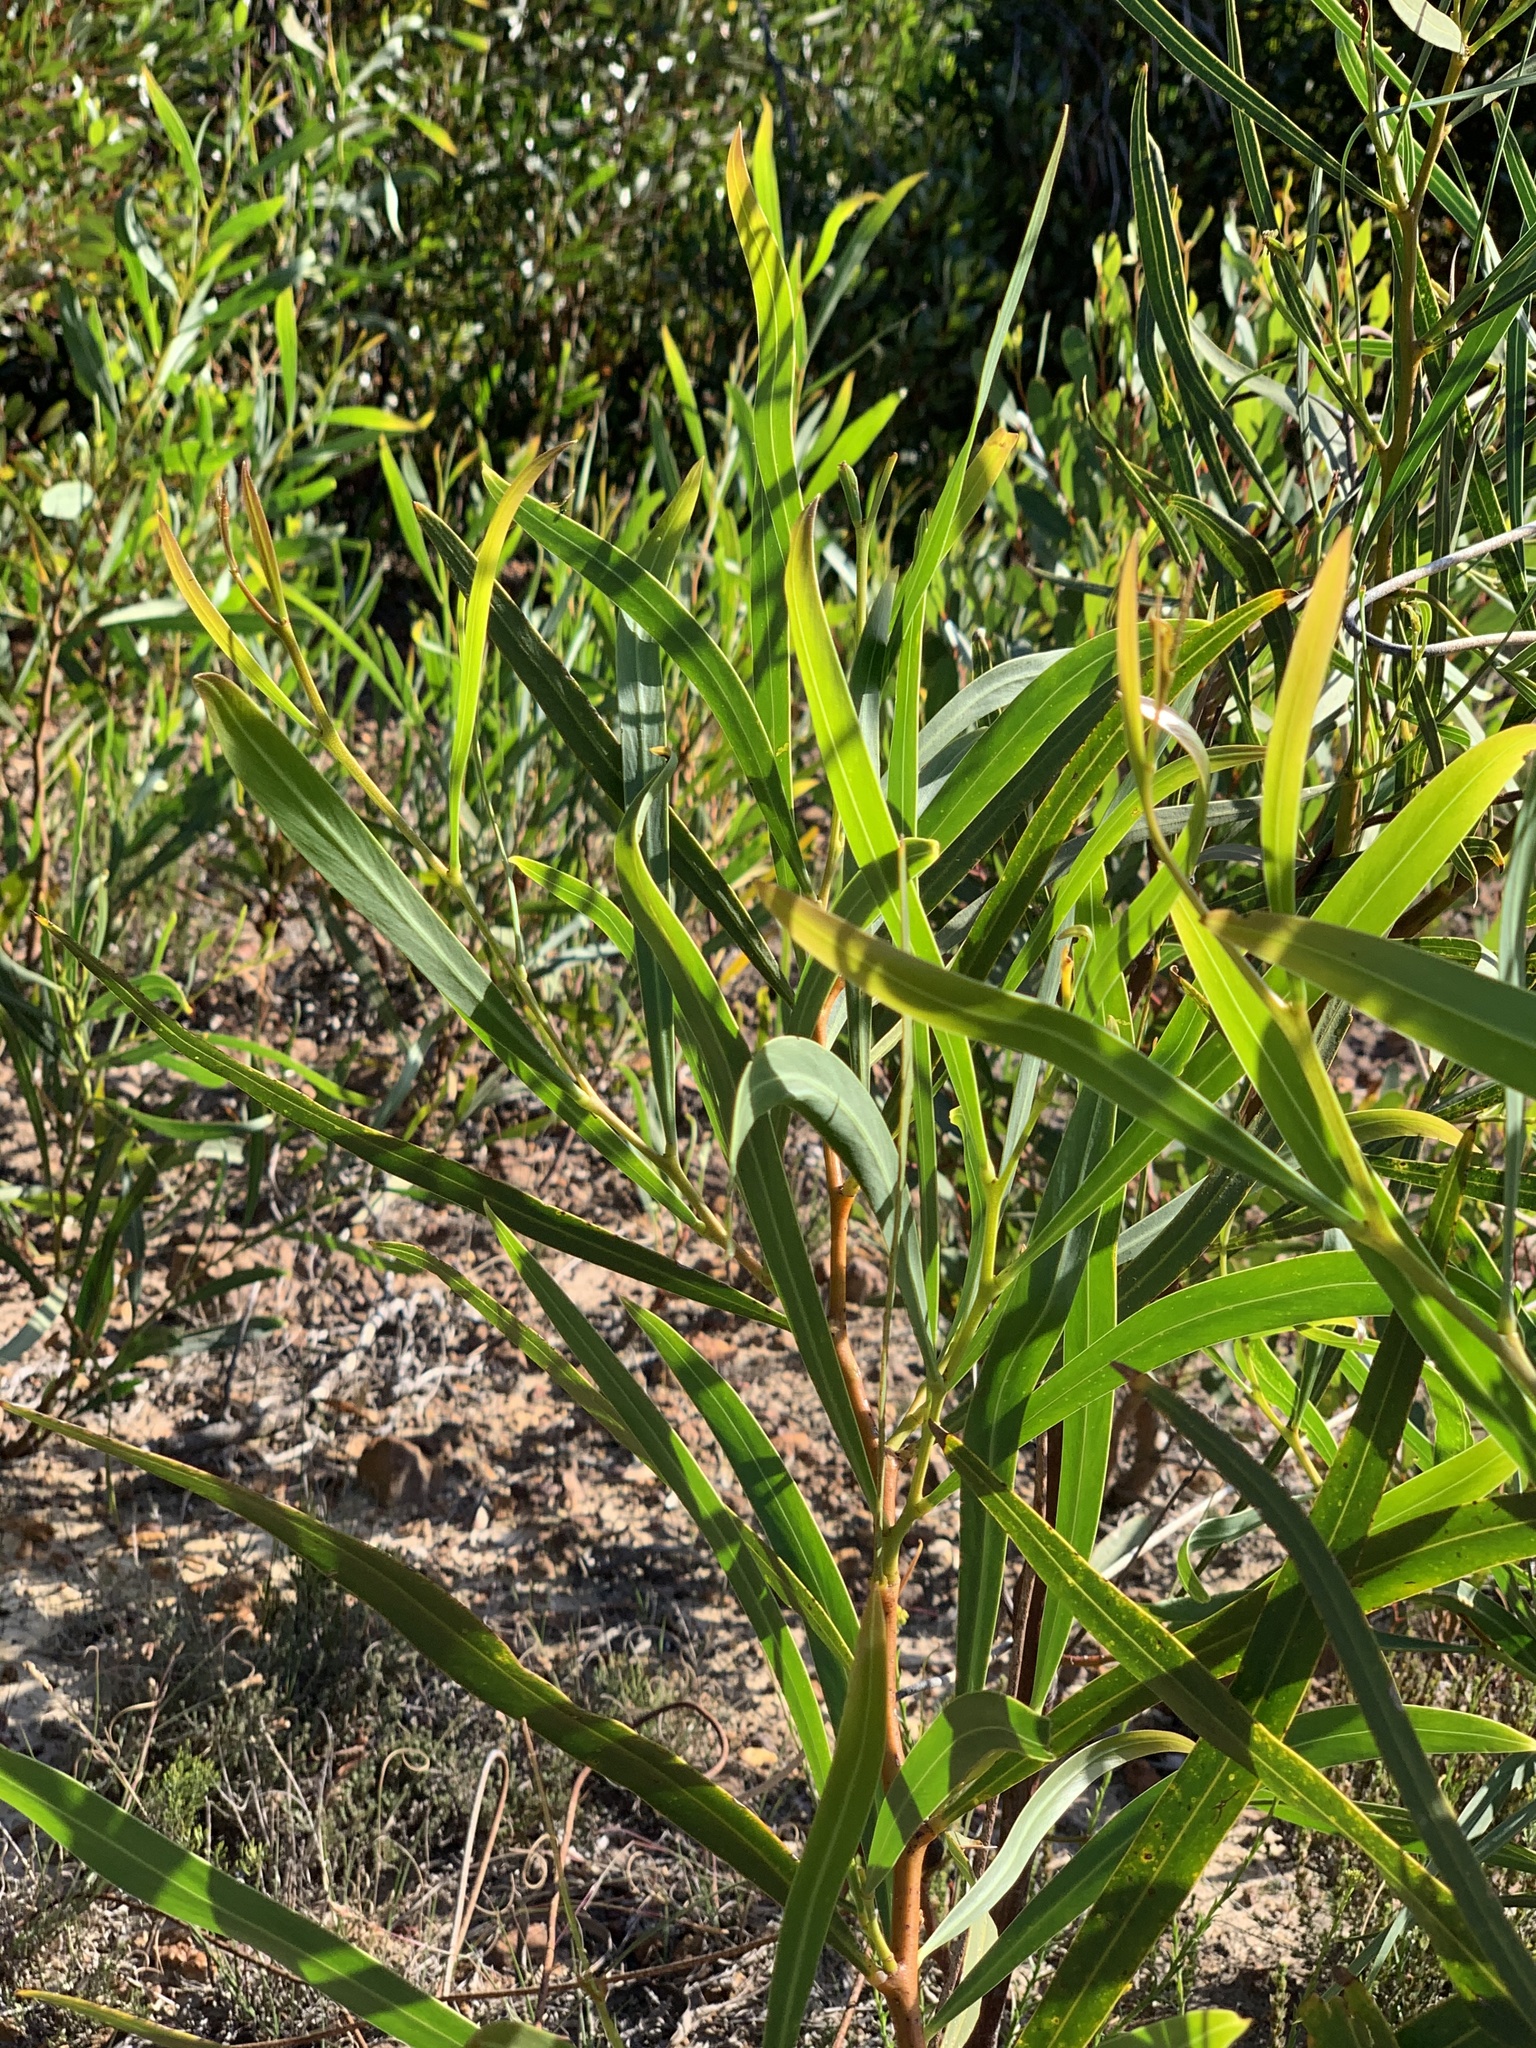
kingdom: Plantae
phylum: Tracheophyta
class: Magnoliopsida
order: Fabales
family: Fabaceae
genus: Acacia
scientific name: Acacia saligna
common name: Orange wattle
